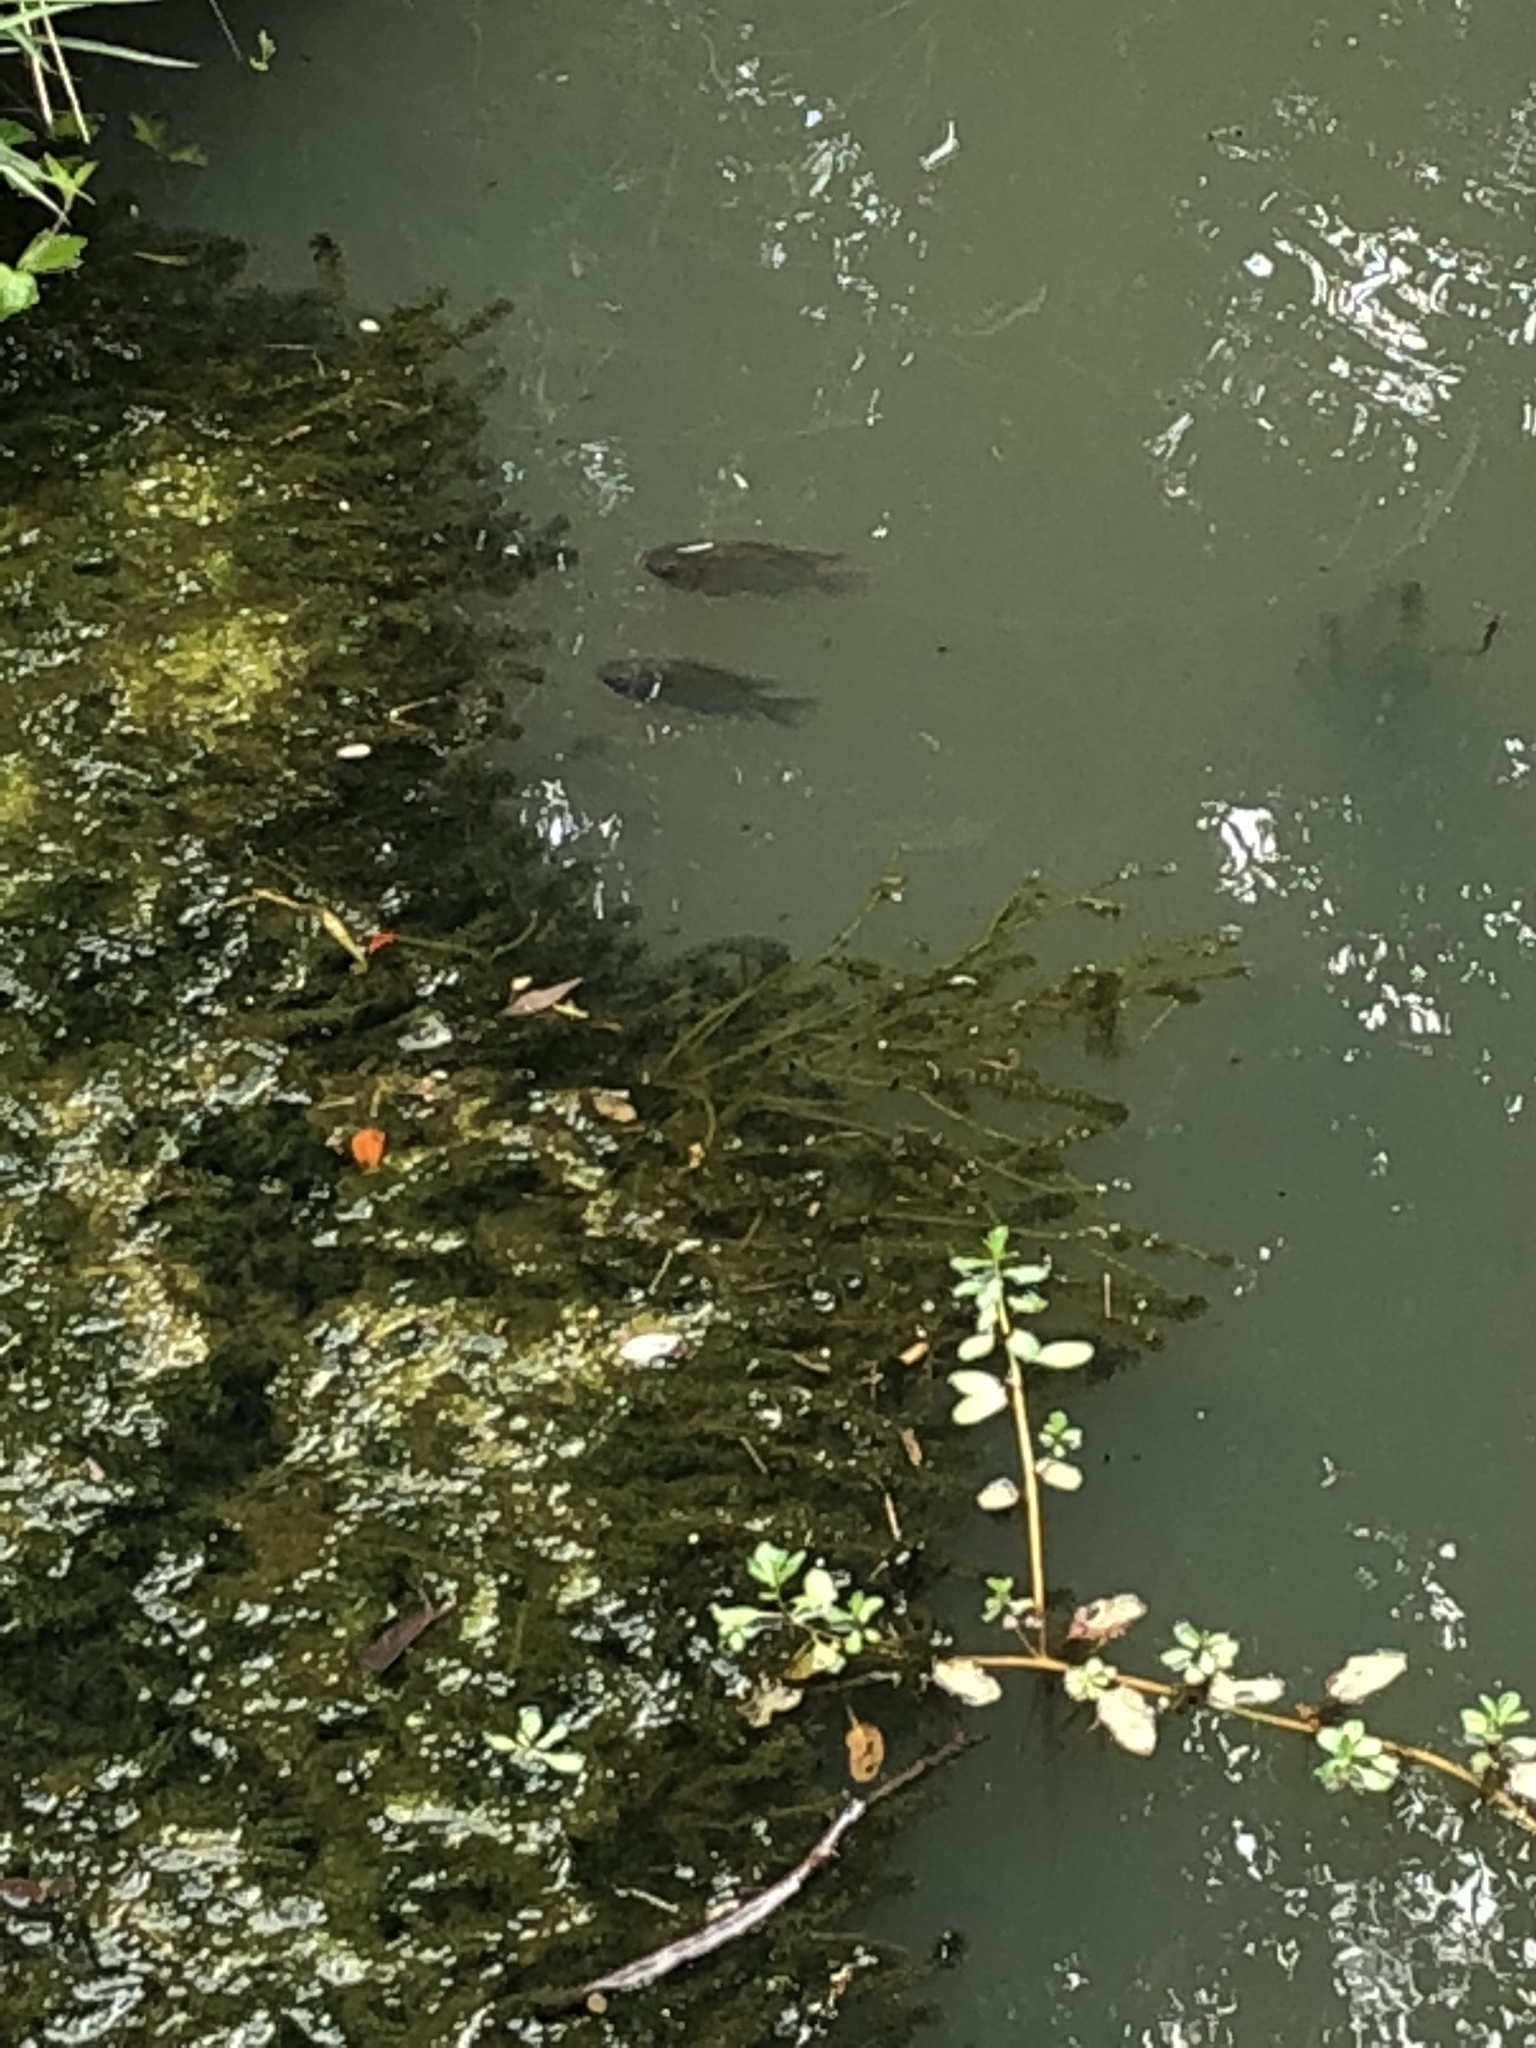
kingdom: Animalia
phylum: Chordata
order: Perciformes
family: Cichlidae
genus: Oreochromis
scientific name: Oreochromis mossambicus
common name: Mozambique tilapia
